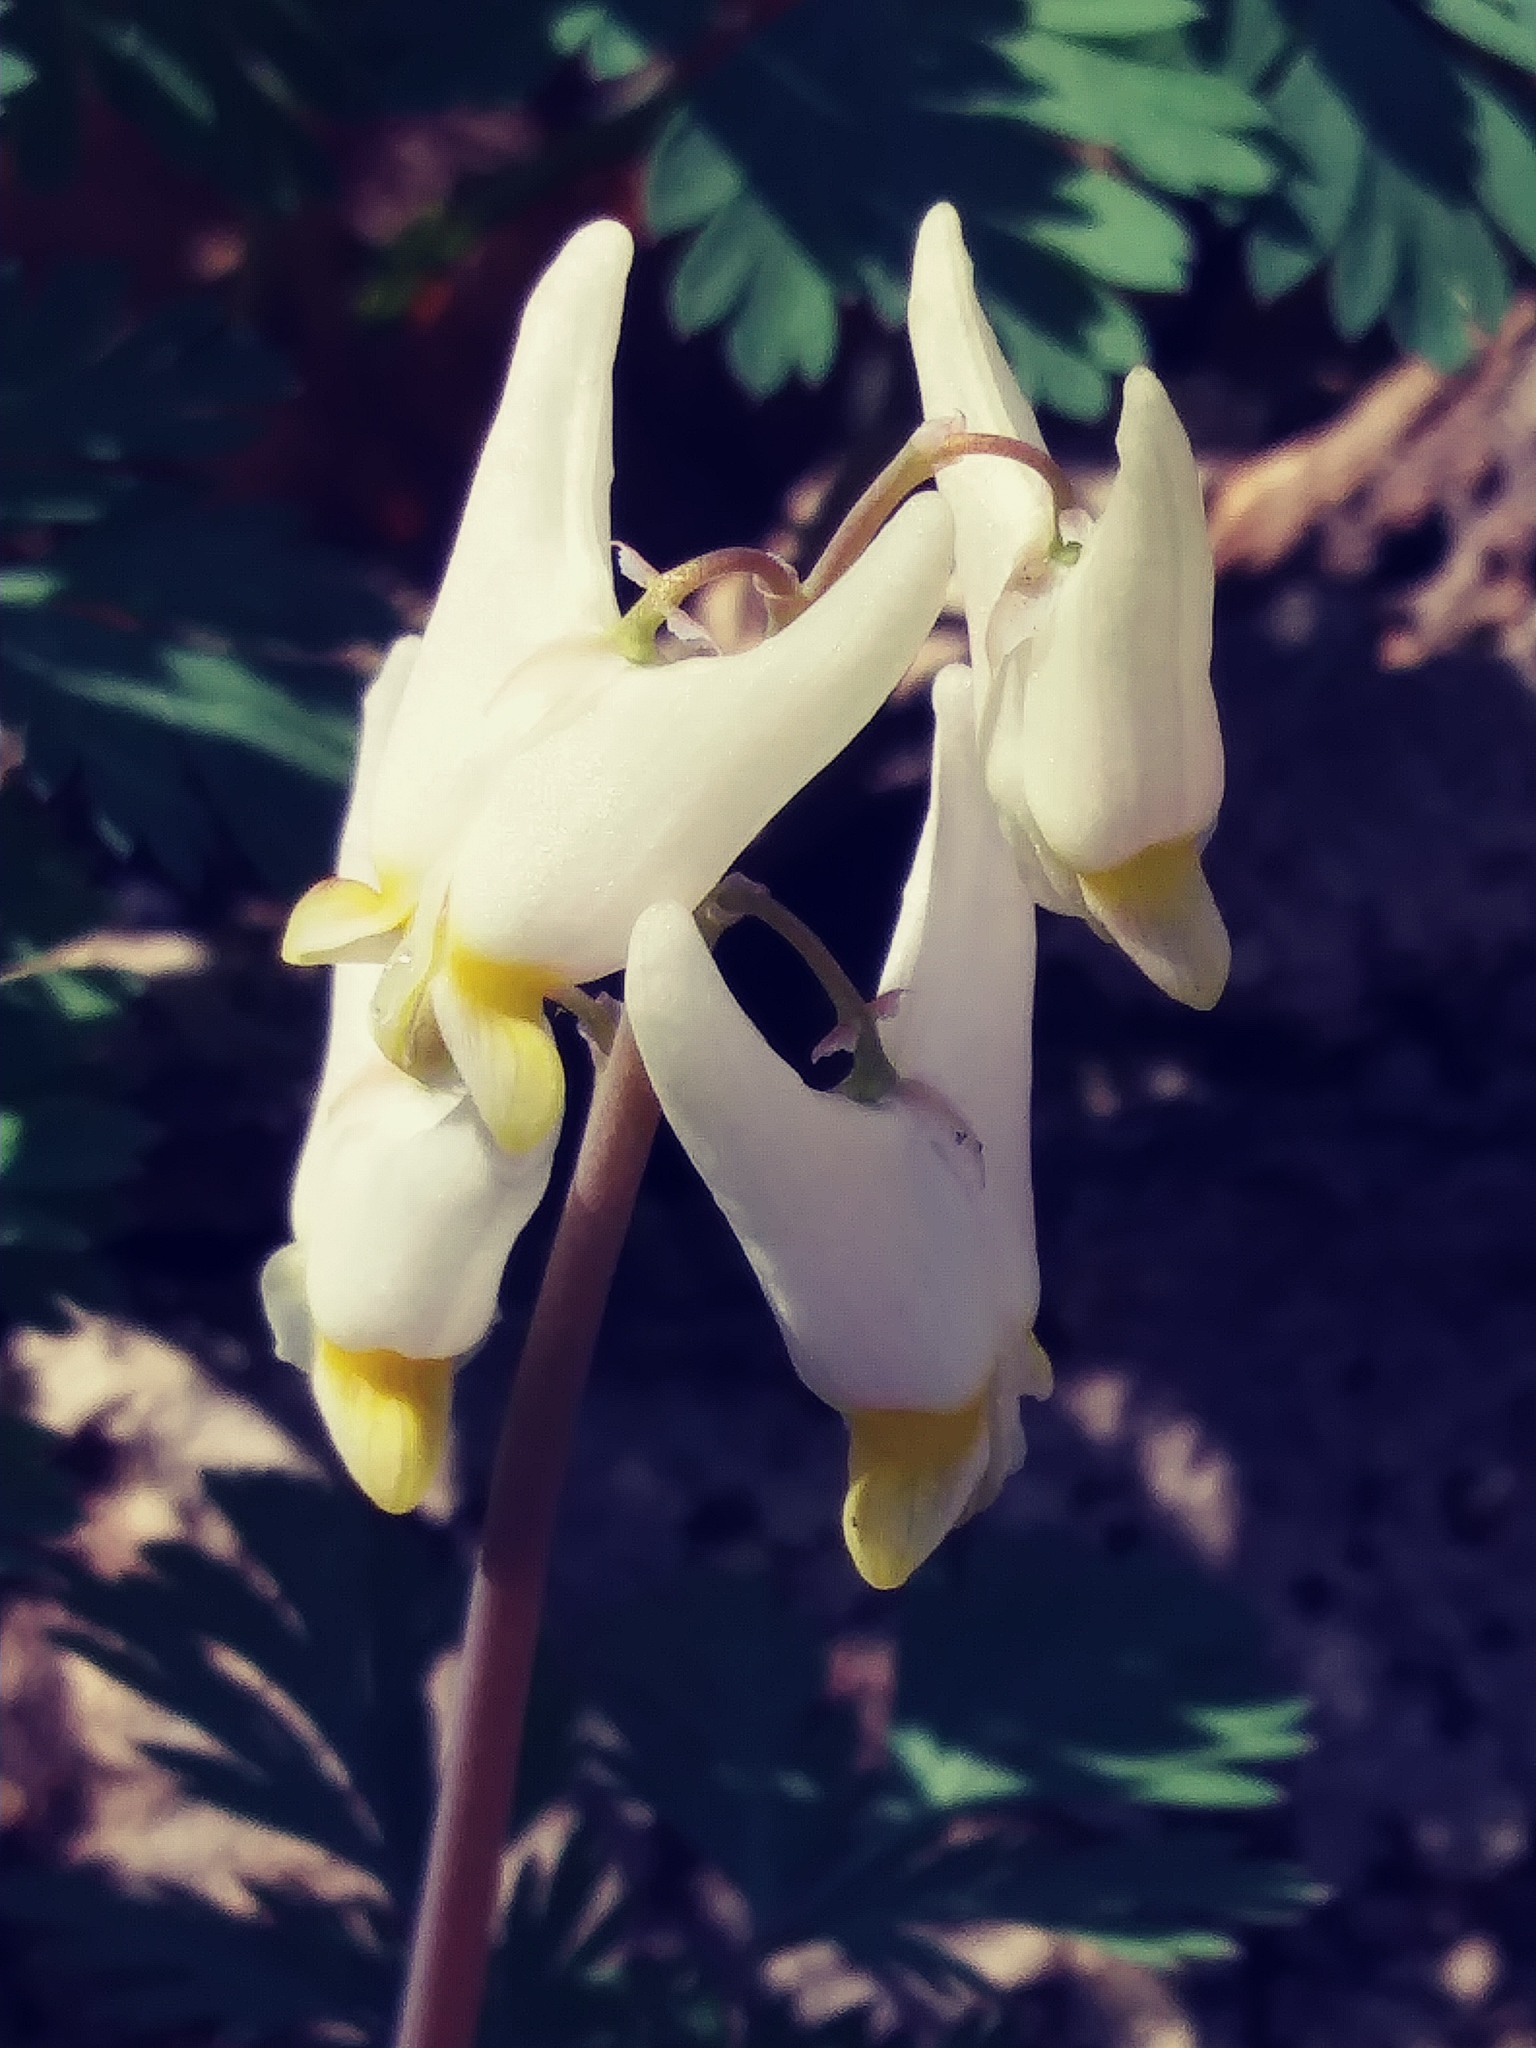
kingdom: Plantae
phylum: Tracheophyta
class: Magnoliopsida
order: Ranunculales
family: Papaveraceae
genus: Dicentra
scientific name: Dicentra cucullaria
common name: Dutchman's breeches
